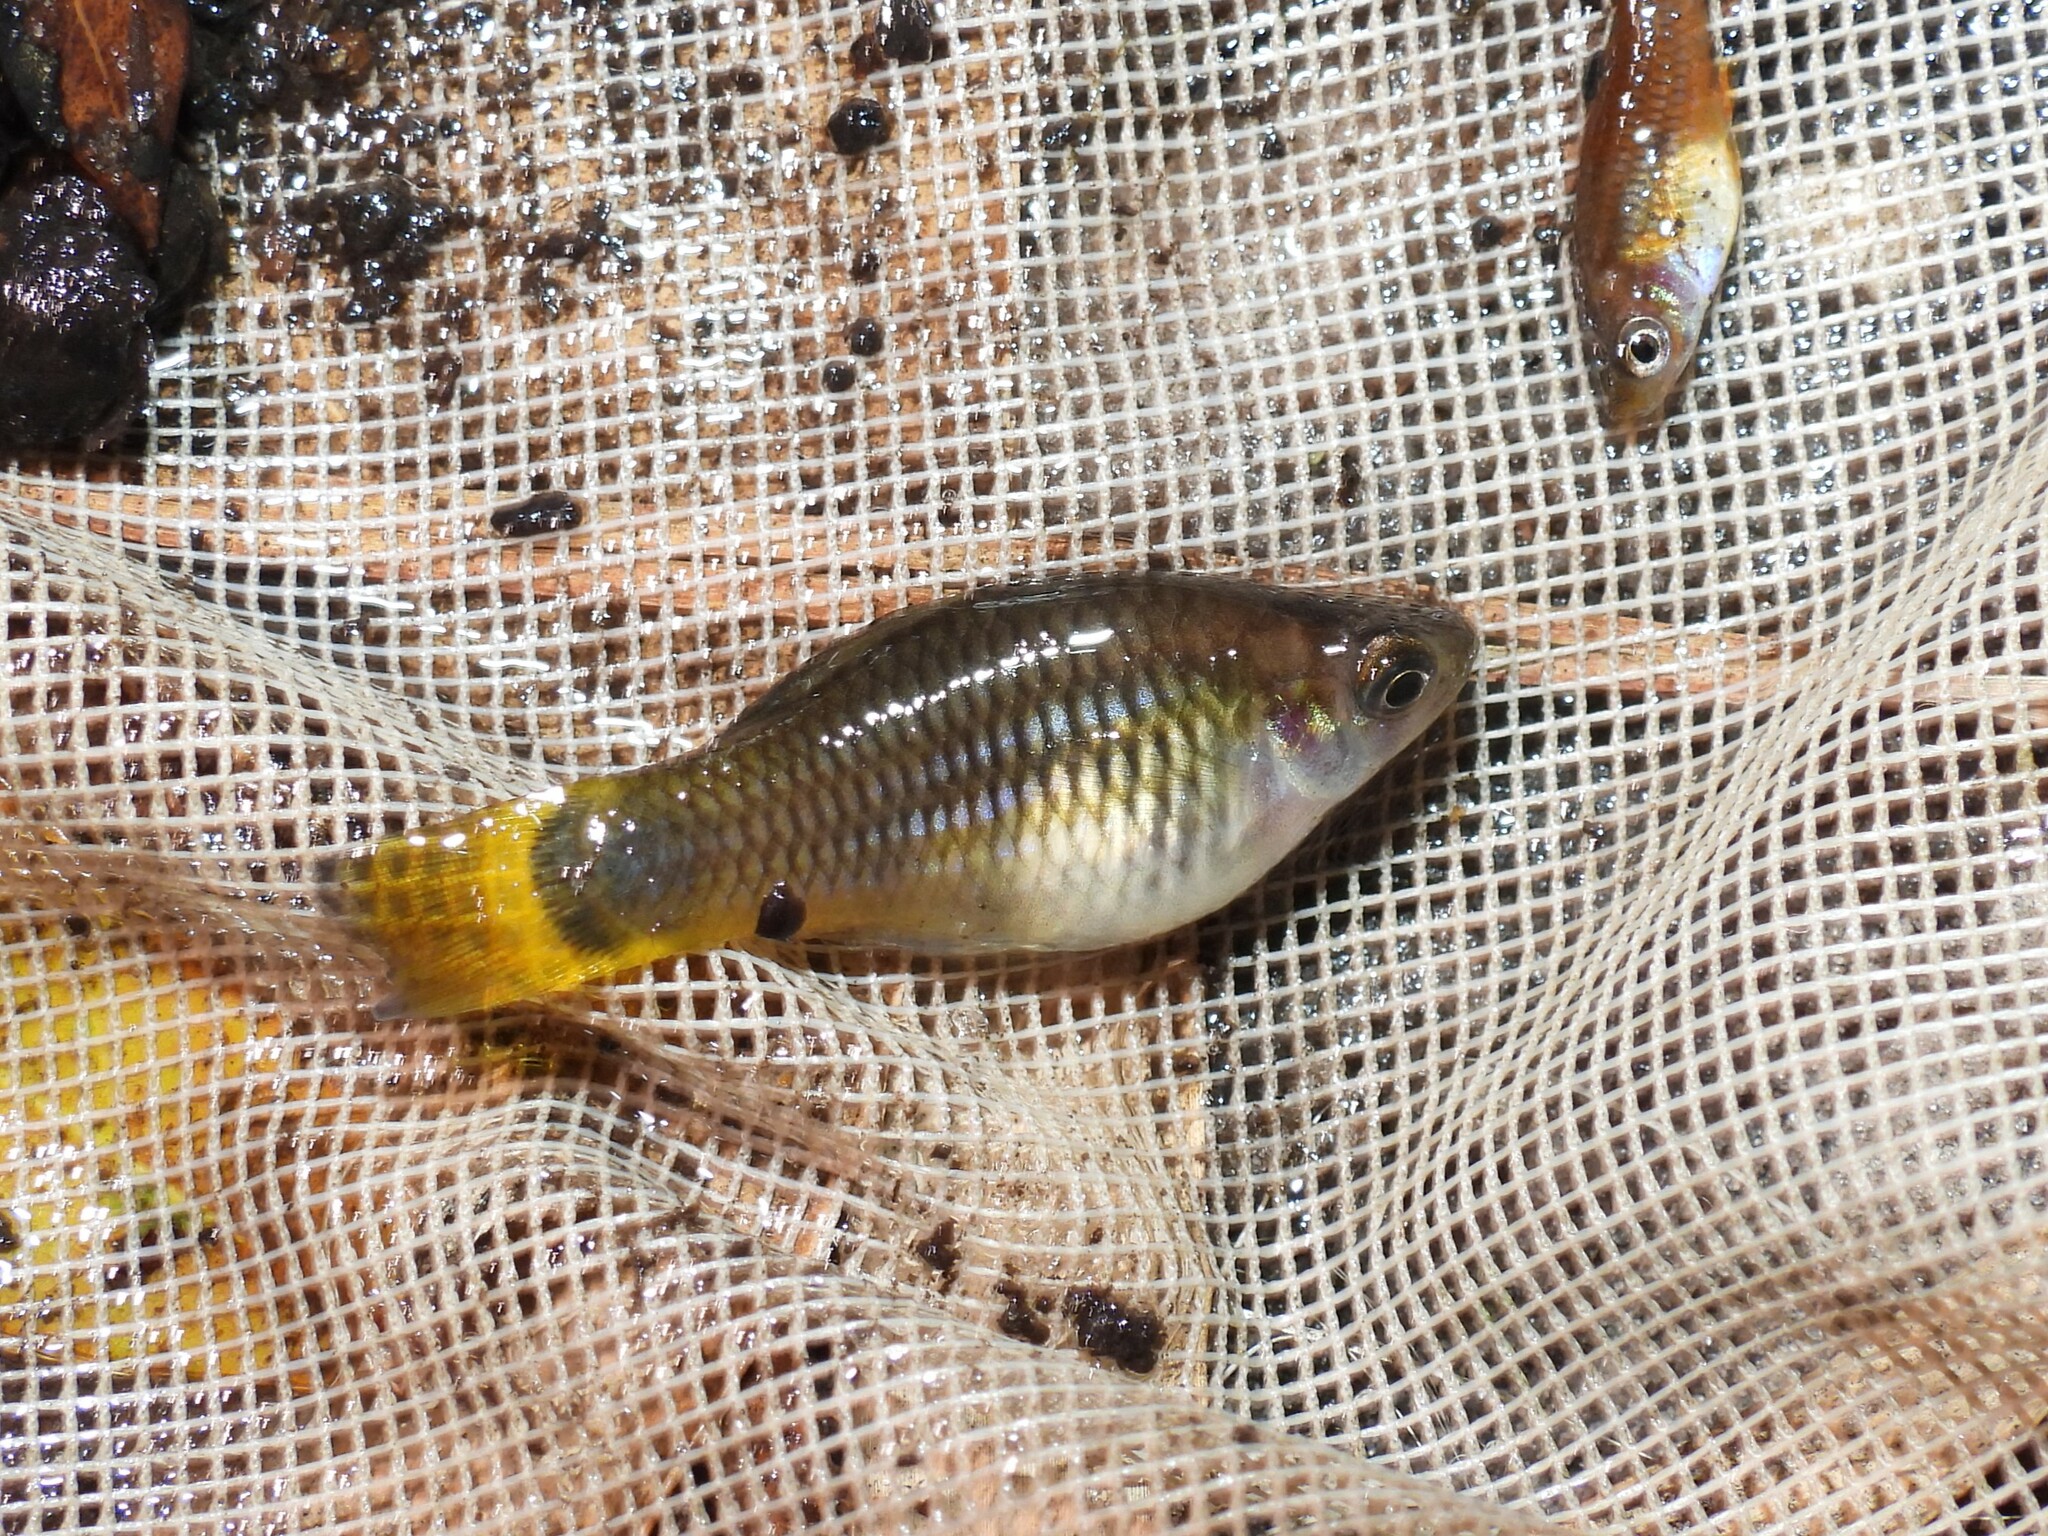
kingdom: Animalia
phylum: Chordata
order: Cyprinodontiformes
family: Poeciliidae
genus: Xiphophorus
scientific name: Xiphophorus variatus
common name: Variable platyfish
